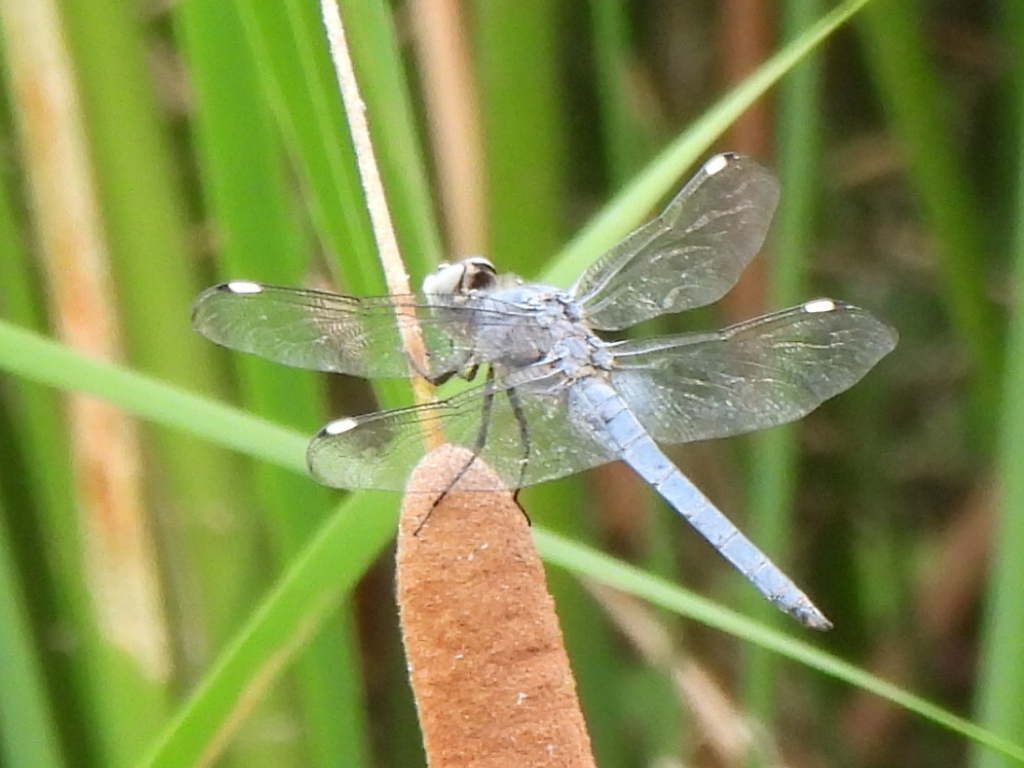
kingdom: Animalia
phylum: Arthropoda
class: Insecta
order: Odonata
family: Libellulidae
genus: Libellula
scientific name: Libellula comanche
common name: Comanche skimmer
